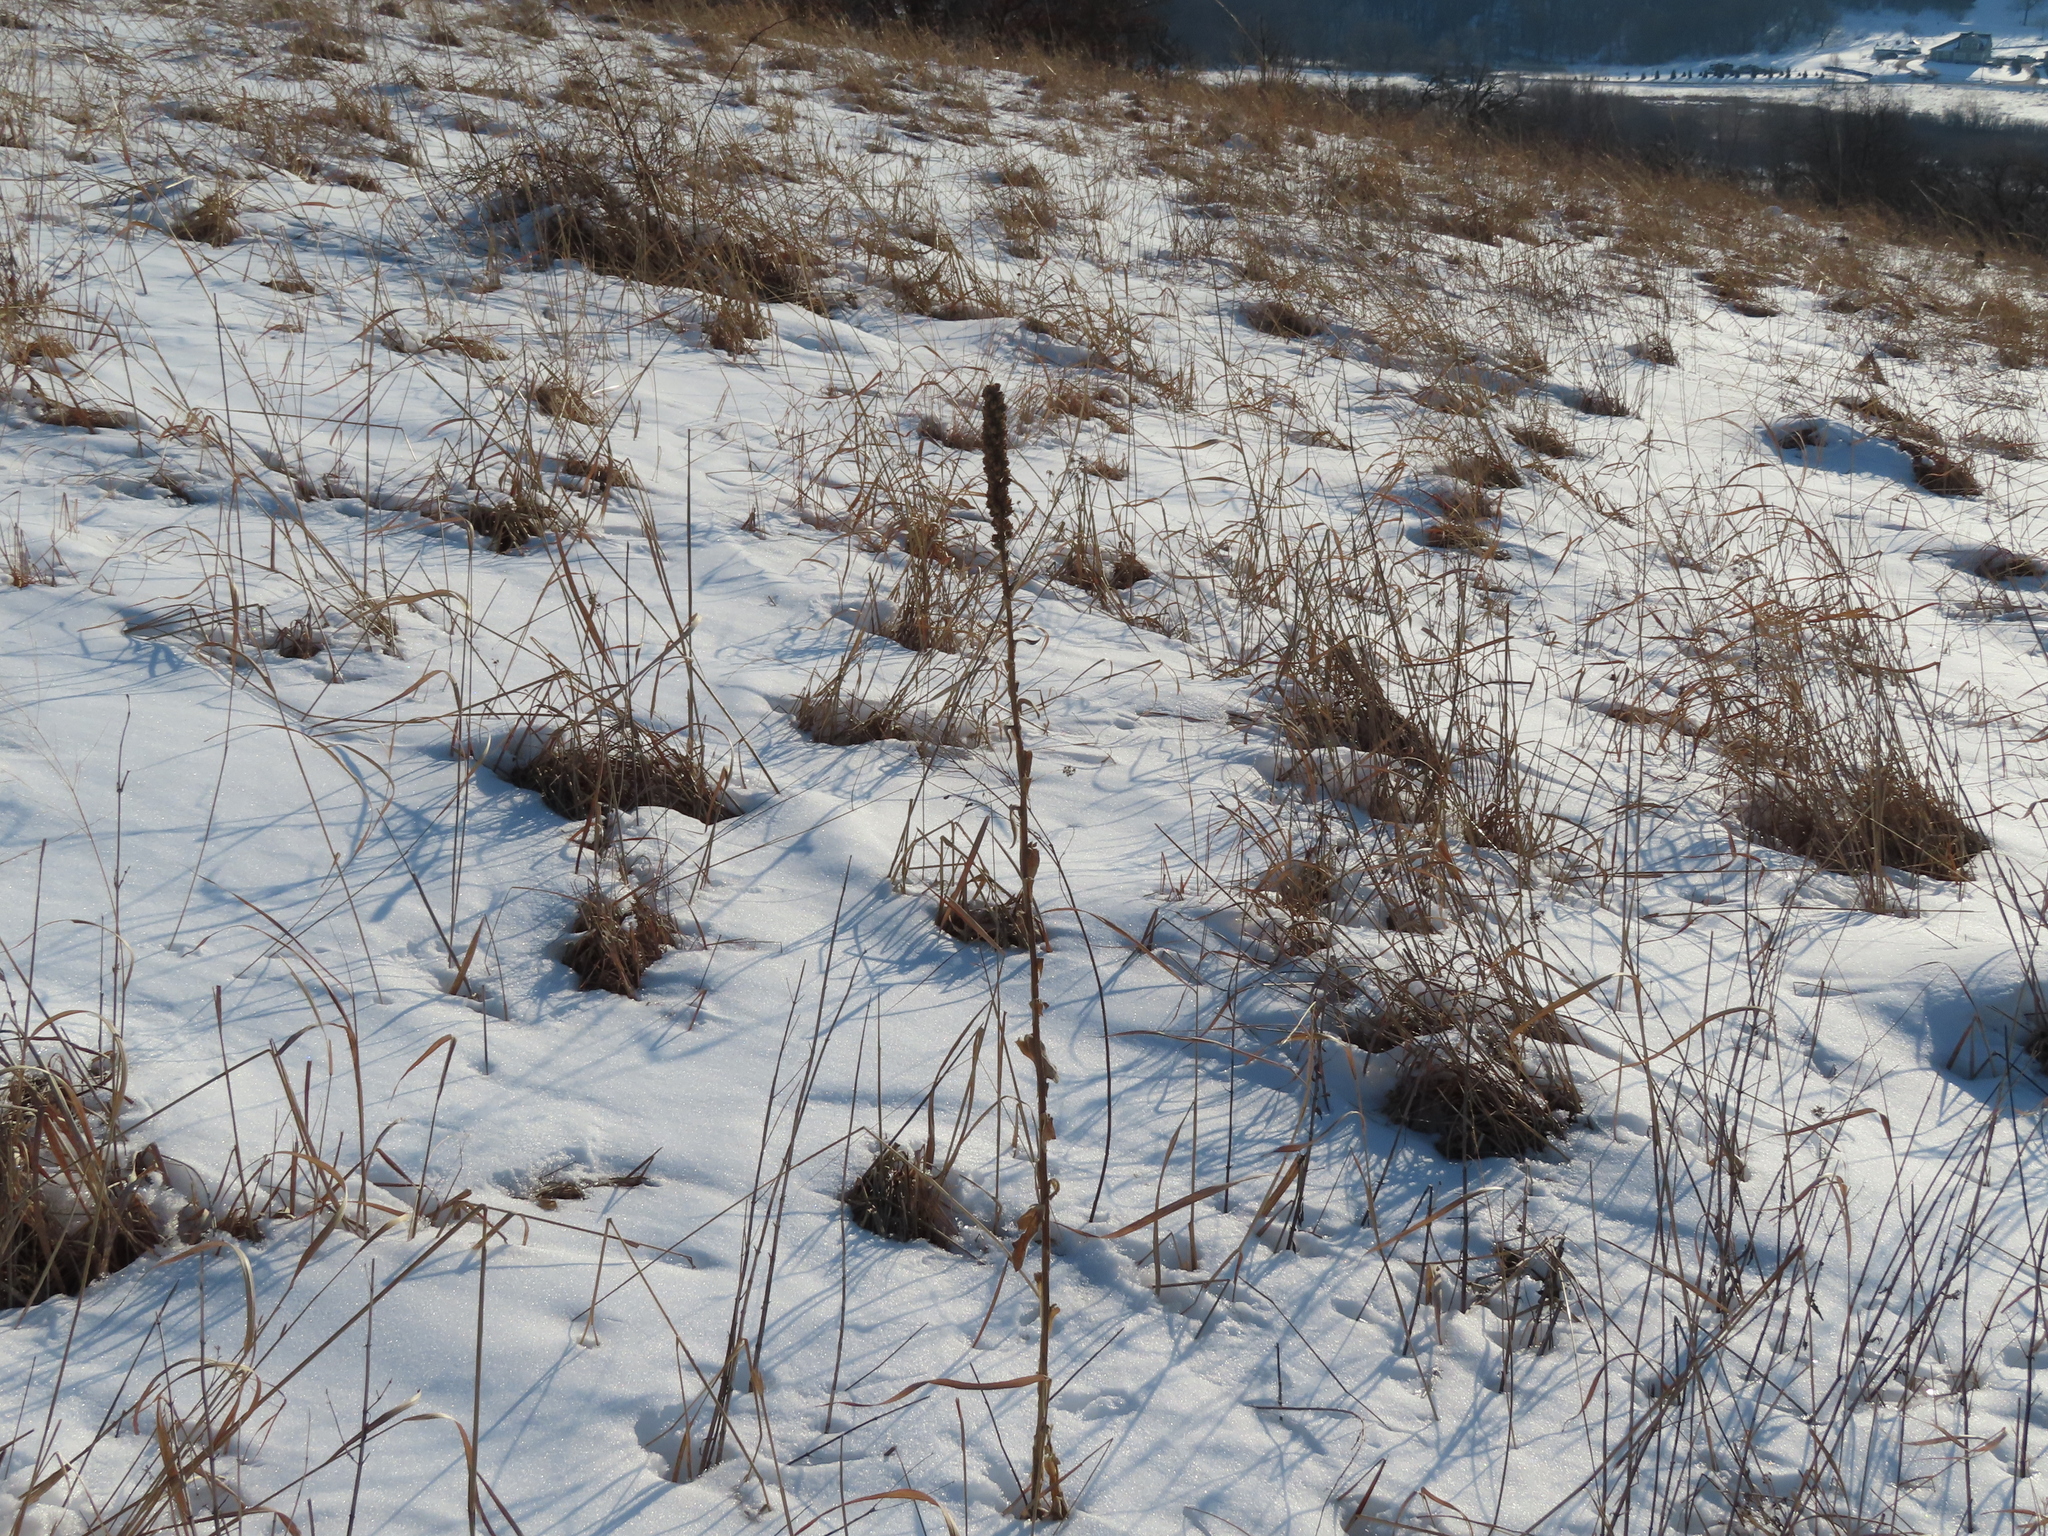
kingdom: Plantae
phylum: Tracheophyta
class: Magnoliopsida
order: Lamiales
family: Scrophulariaceae
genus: Verbascum
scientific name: Verbascum thapsus
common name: Common mullein
